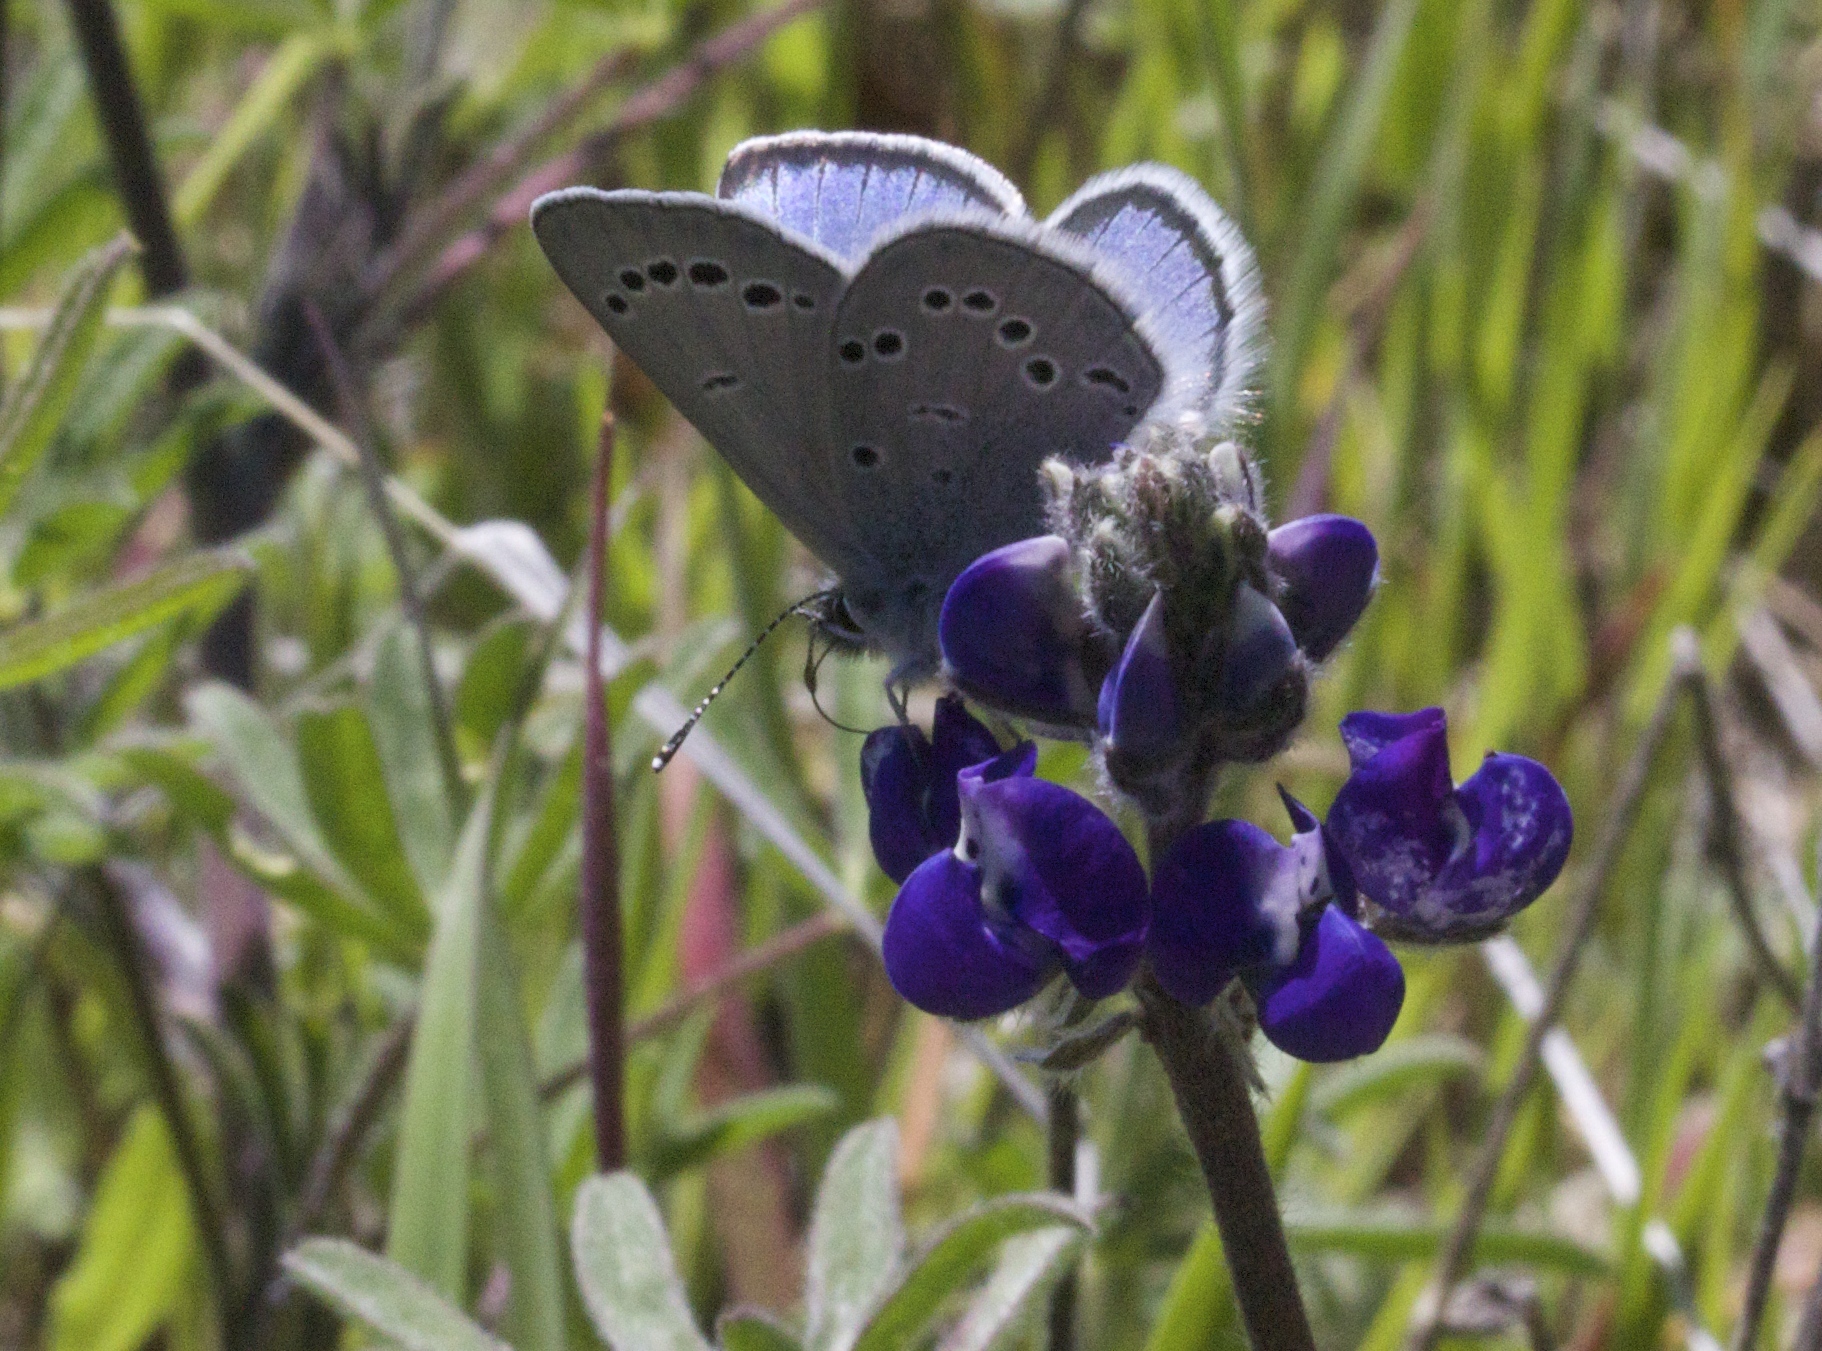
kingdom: Animalia
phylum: Arthropoda
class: Insecta
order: Lepidoptera
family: Lycaenidae
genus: Glaucopsyche
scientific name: Glaucopsyche lygdamus
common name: Silvery blue
